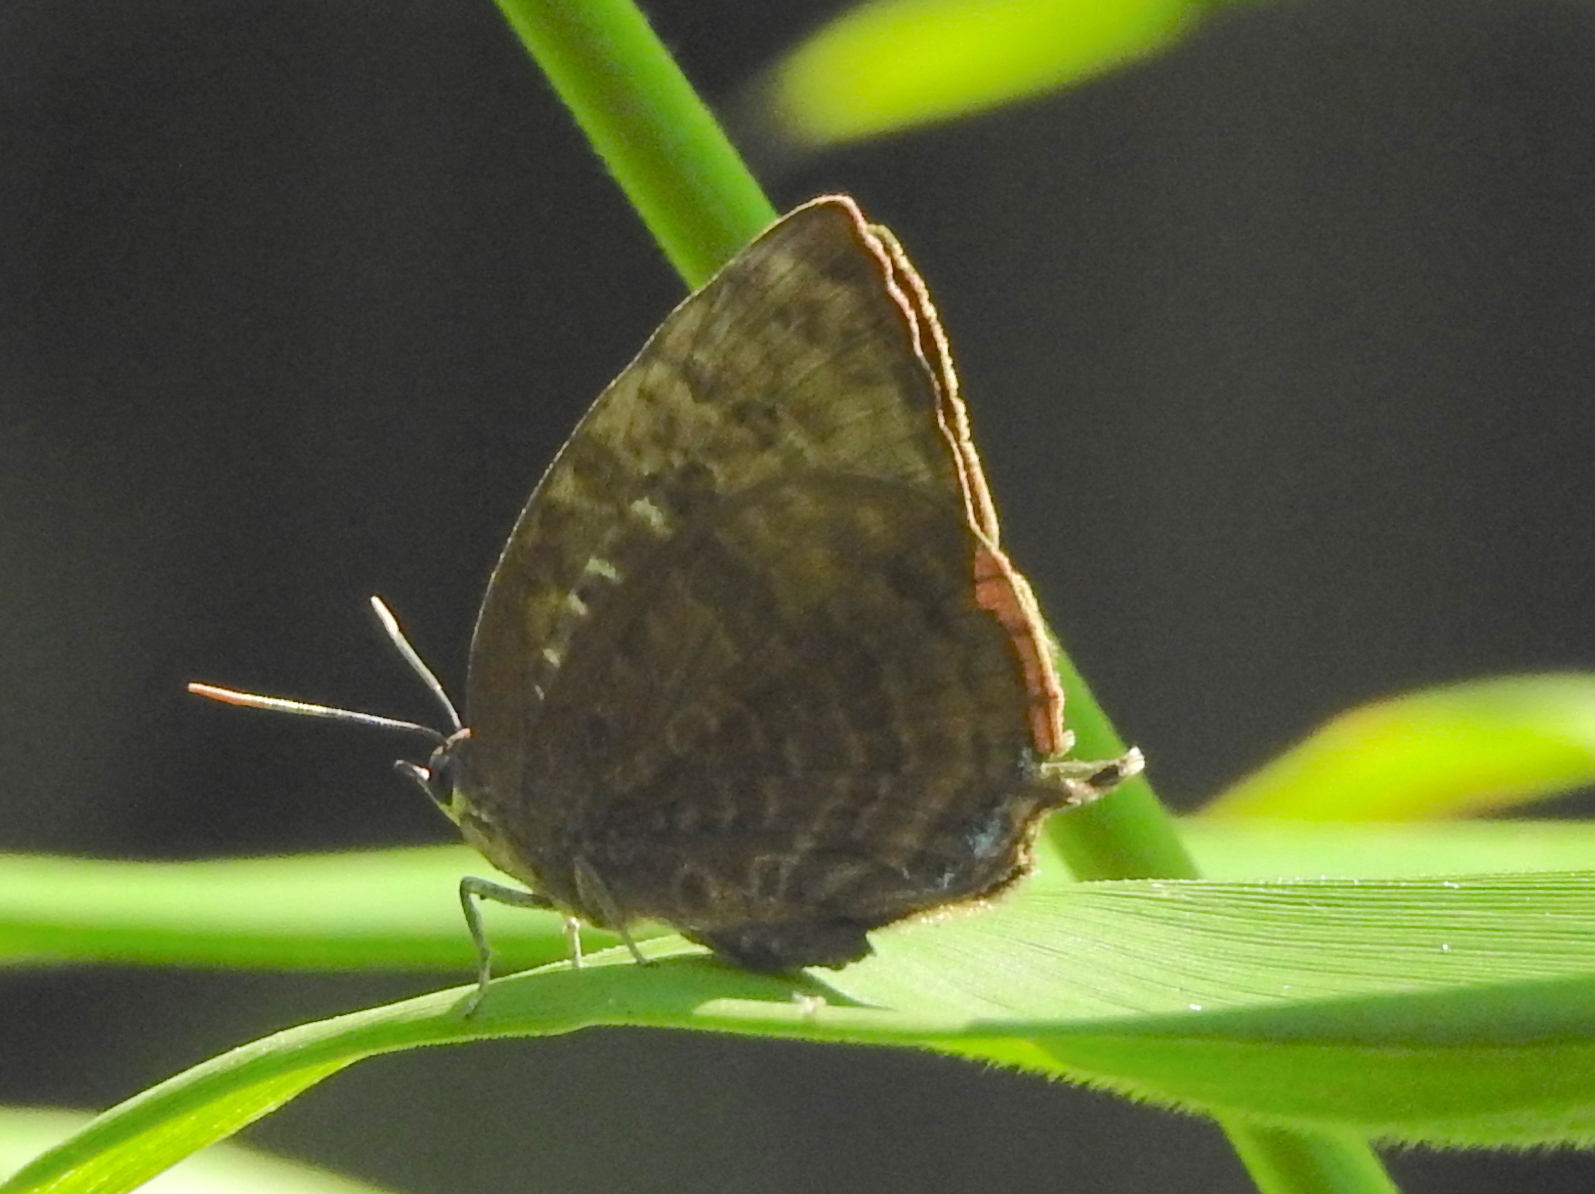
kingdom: Animalia
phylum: Arthropoda
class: Insecta
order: Lepidoptera
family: Lycaenidae
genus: Arhopala
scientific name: Arhopala centaurus
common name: Dull oak-blue
